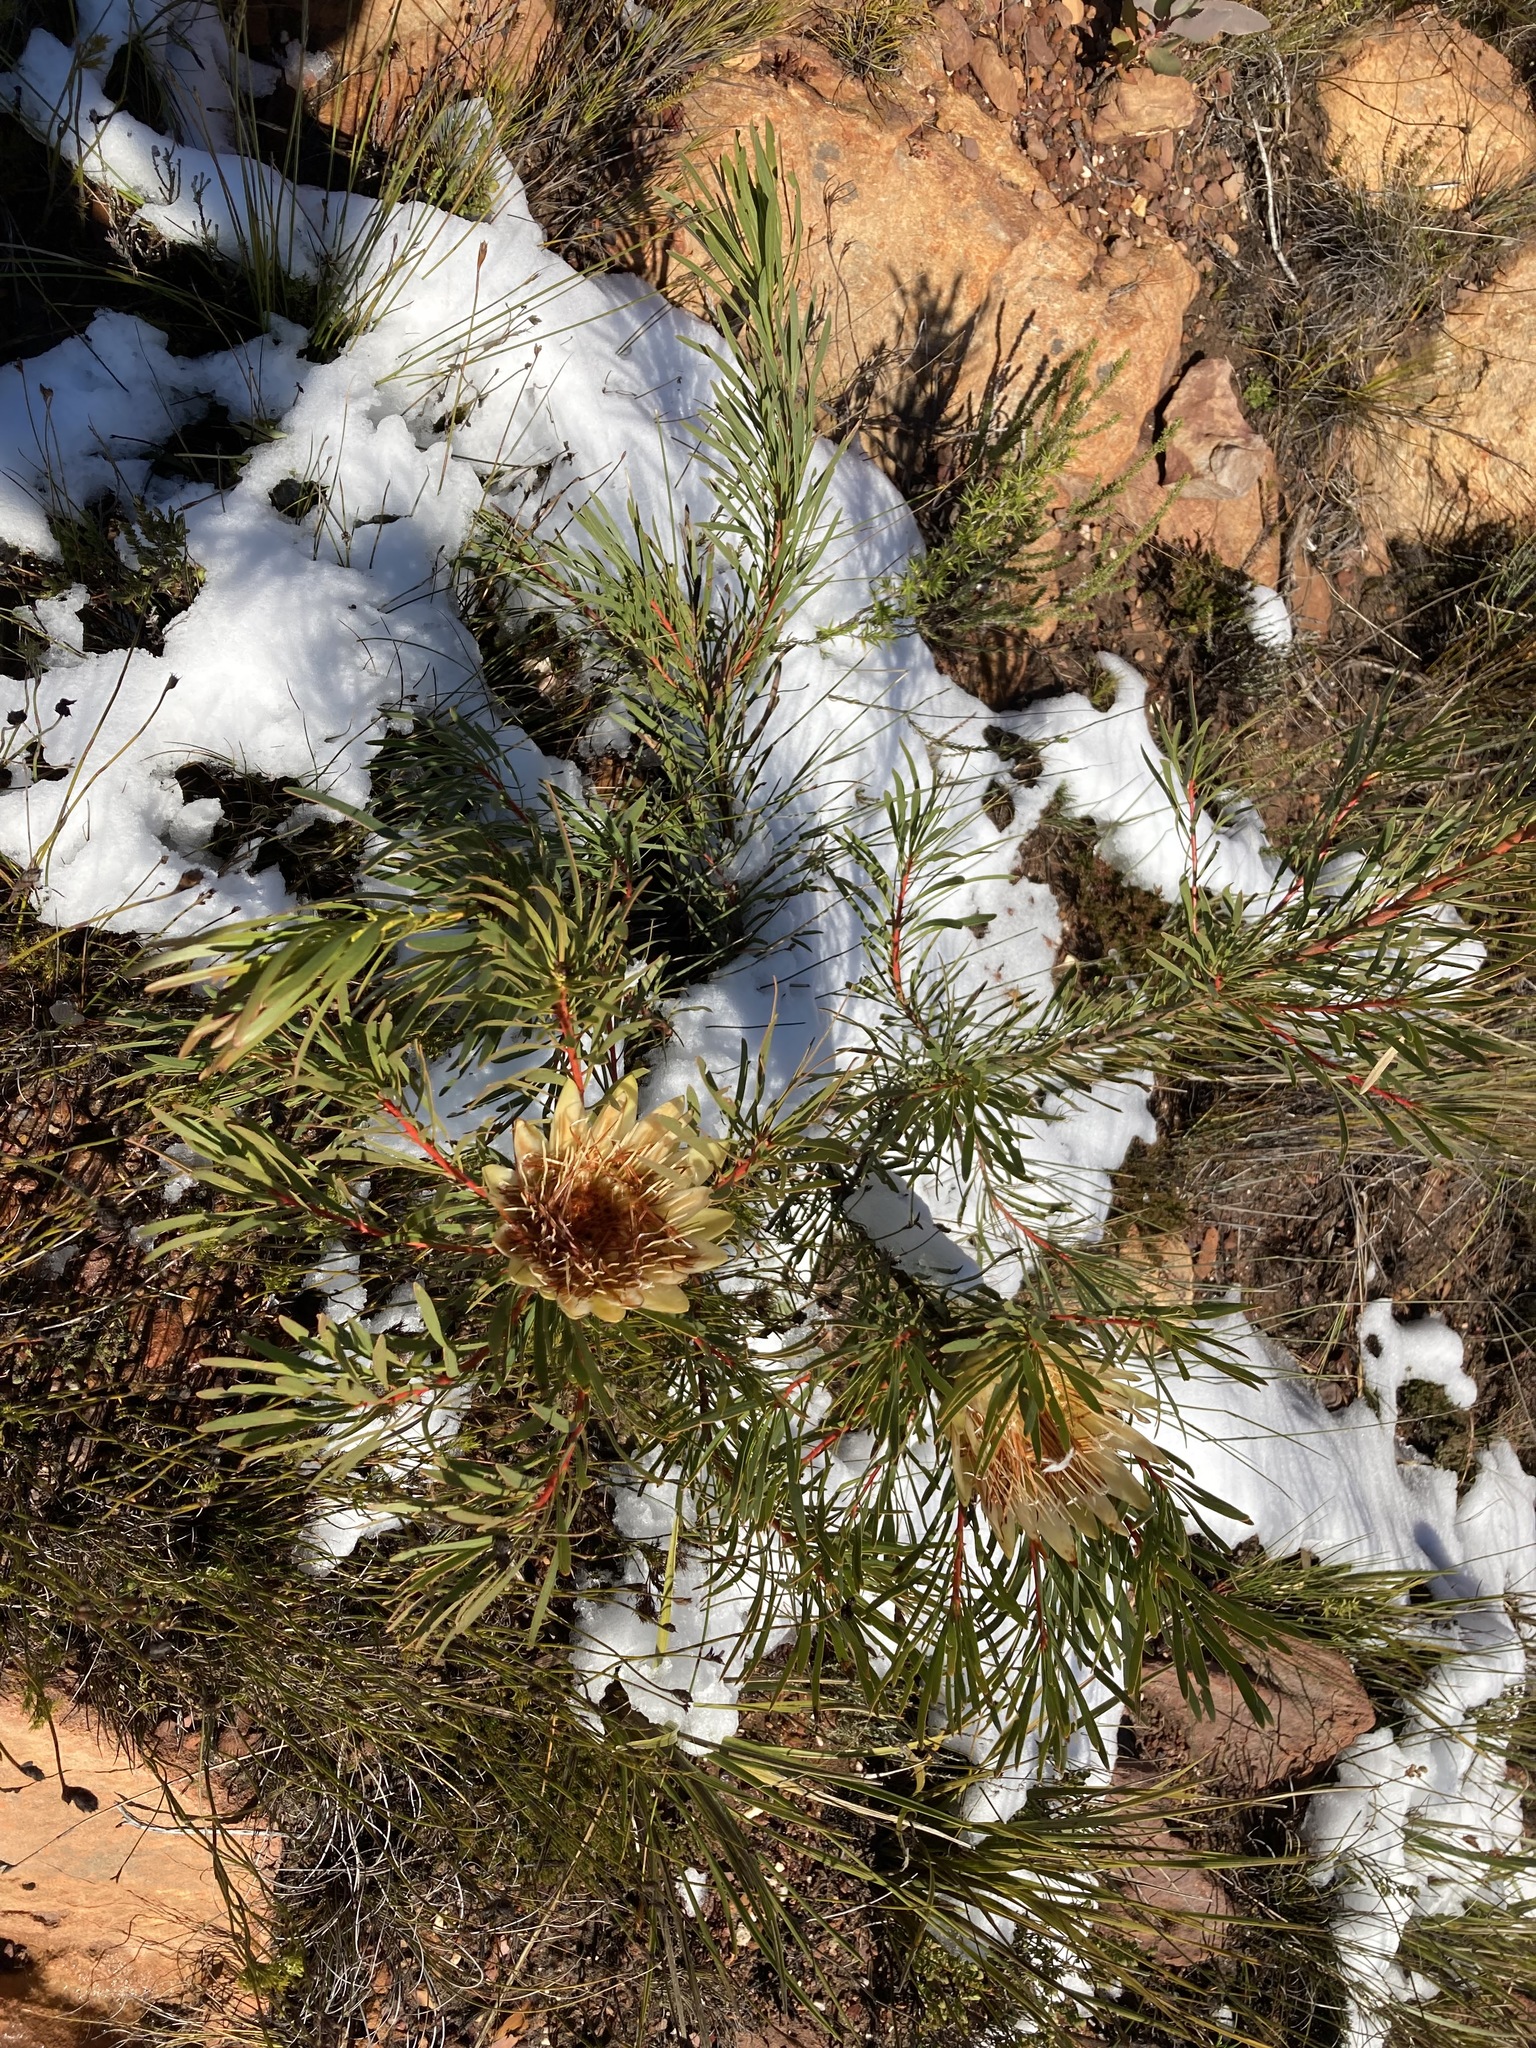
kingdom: Plantae
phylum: Tracheophyta
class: Magnoliopsida
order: Proteales
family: Proteaceae
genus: Protea
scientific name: Protea repens
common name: Sugarbush
